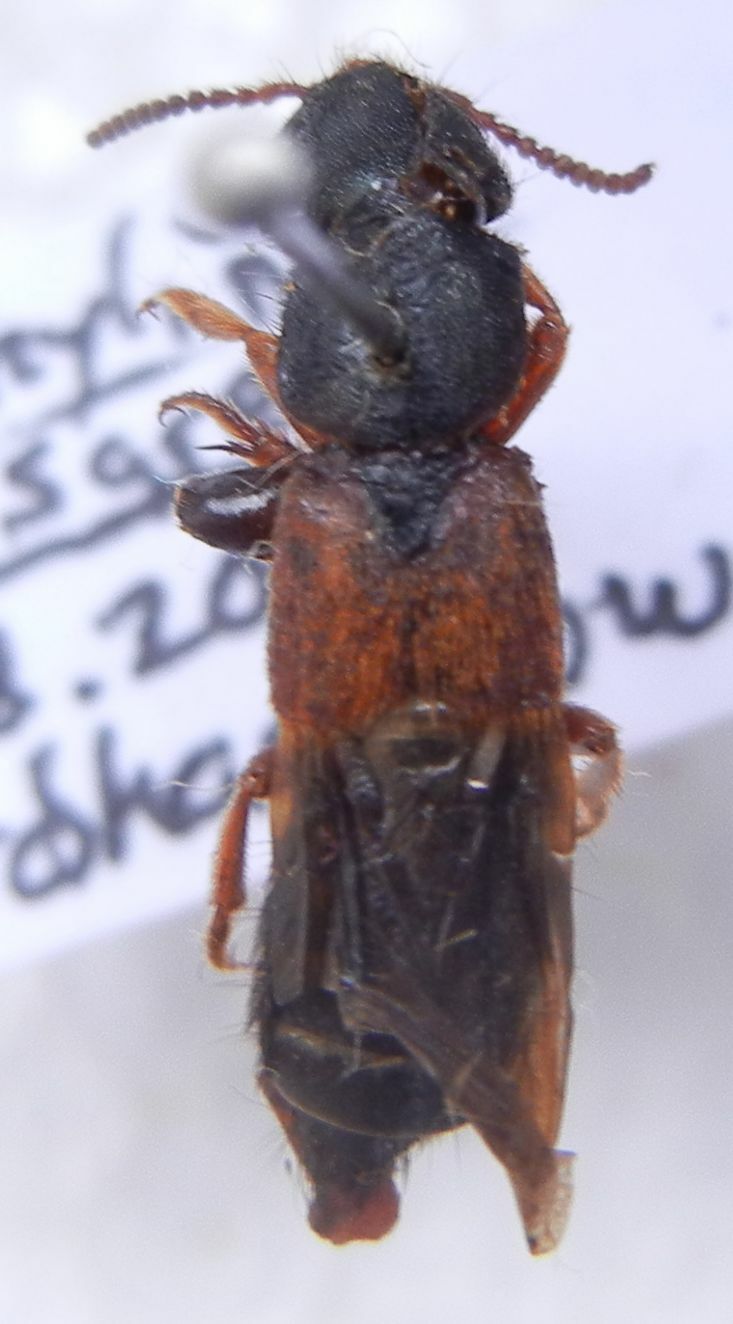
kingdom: Animalia
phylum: Arthropoda
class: Insecta
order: Coleoptera
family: Staphylinidae
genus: Platydracus
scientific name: Platydracus stercorarius
